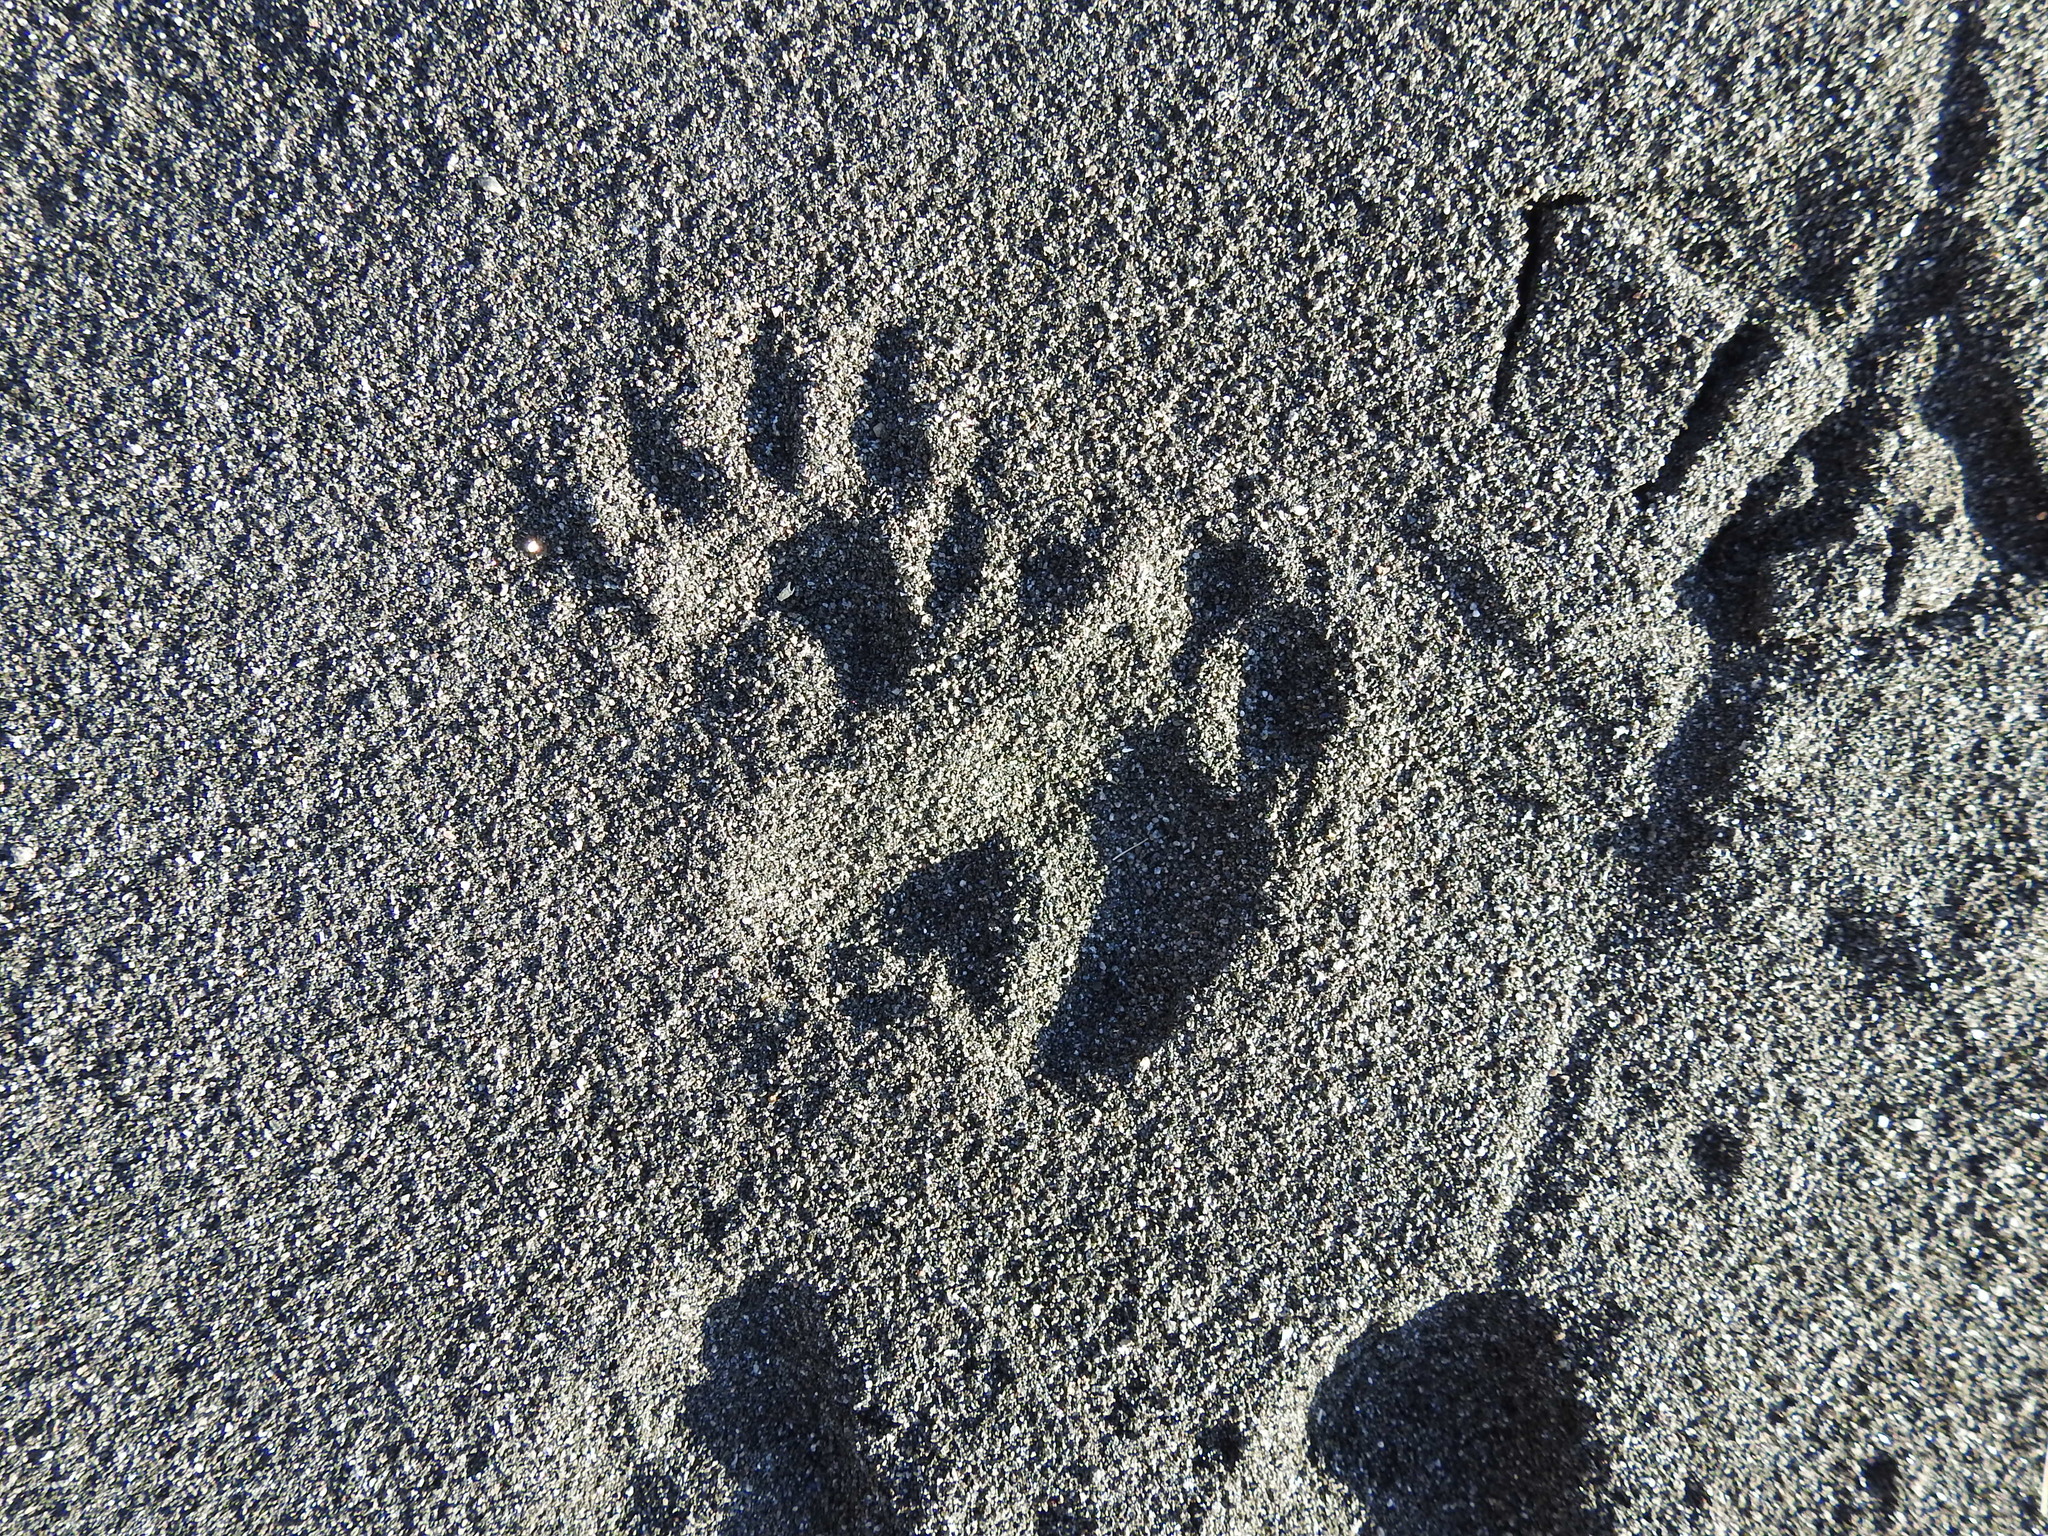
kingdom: Animalia
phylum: Chordata
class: Mammalia
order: Diprotodontia
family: Phalangeridae
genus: Trichosurus
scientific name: Trichosurus vulpecula
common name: Common brushtail
